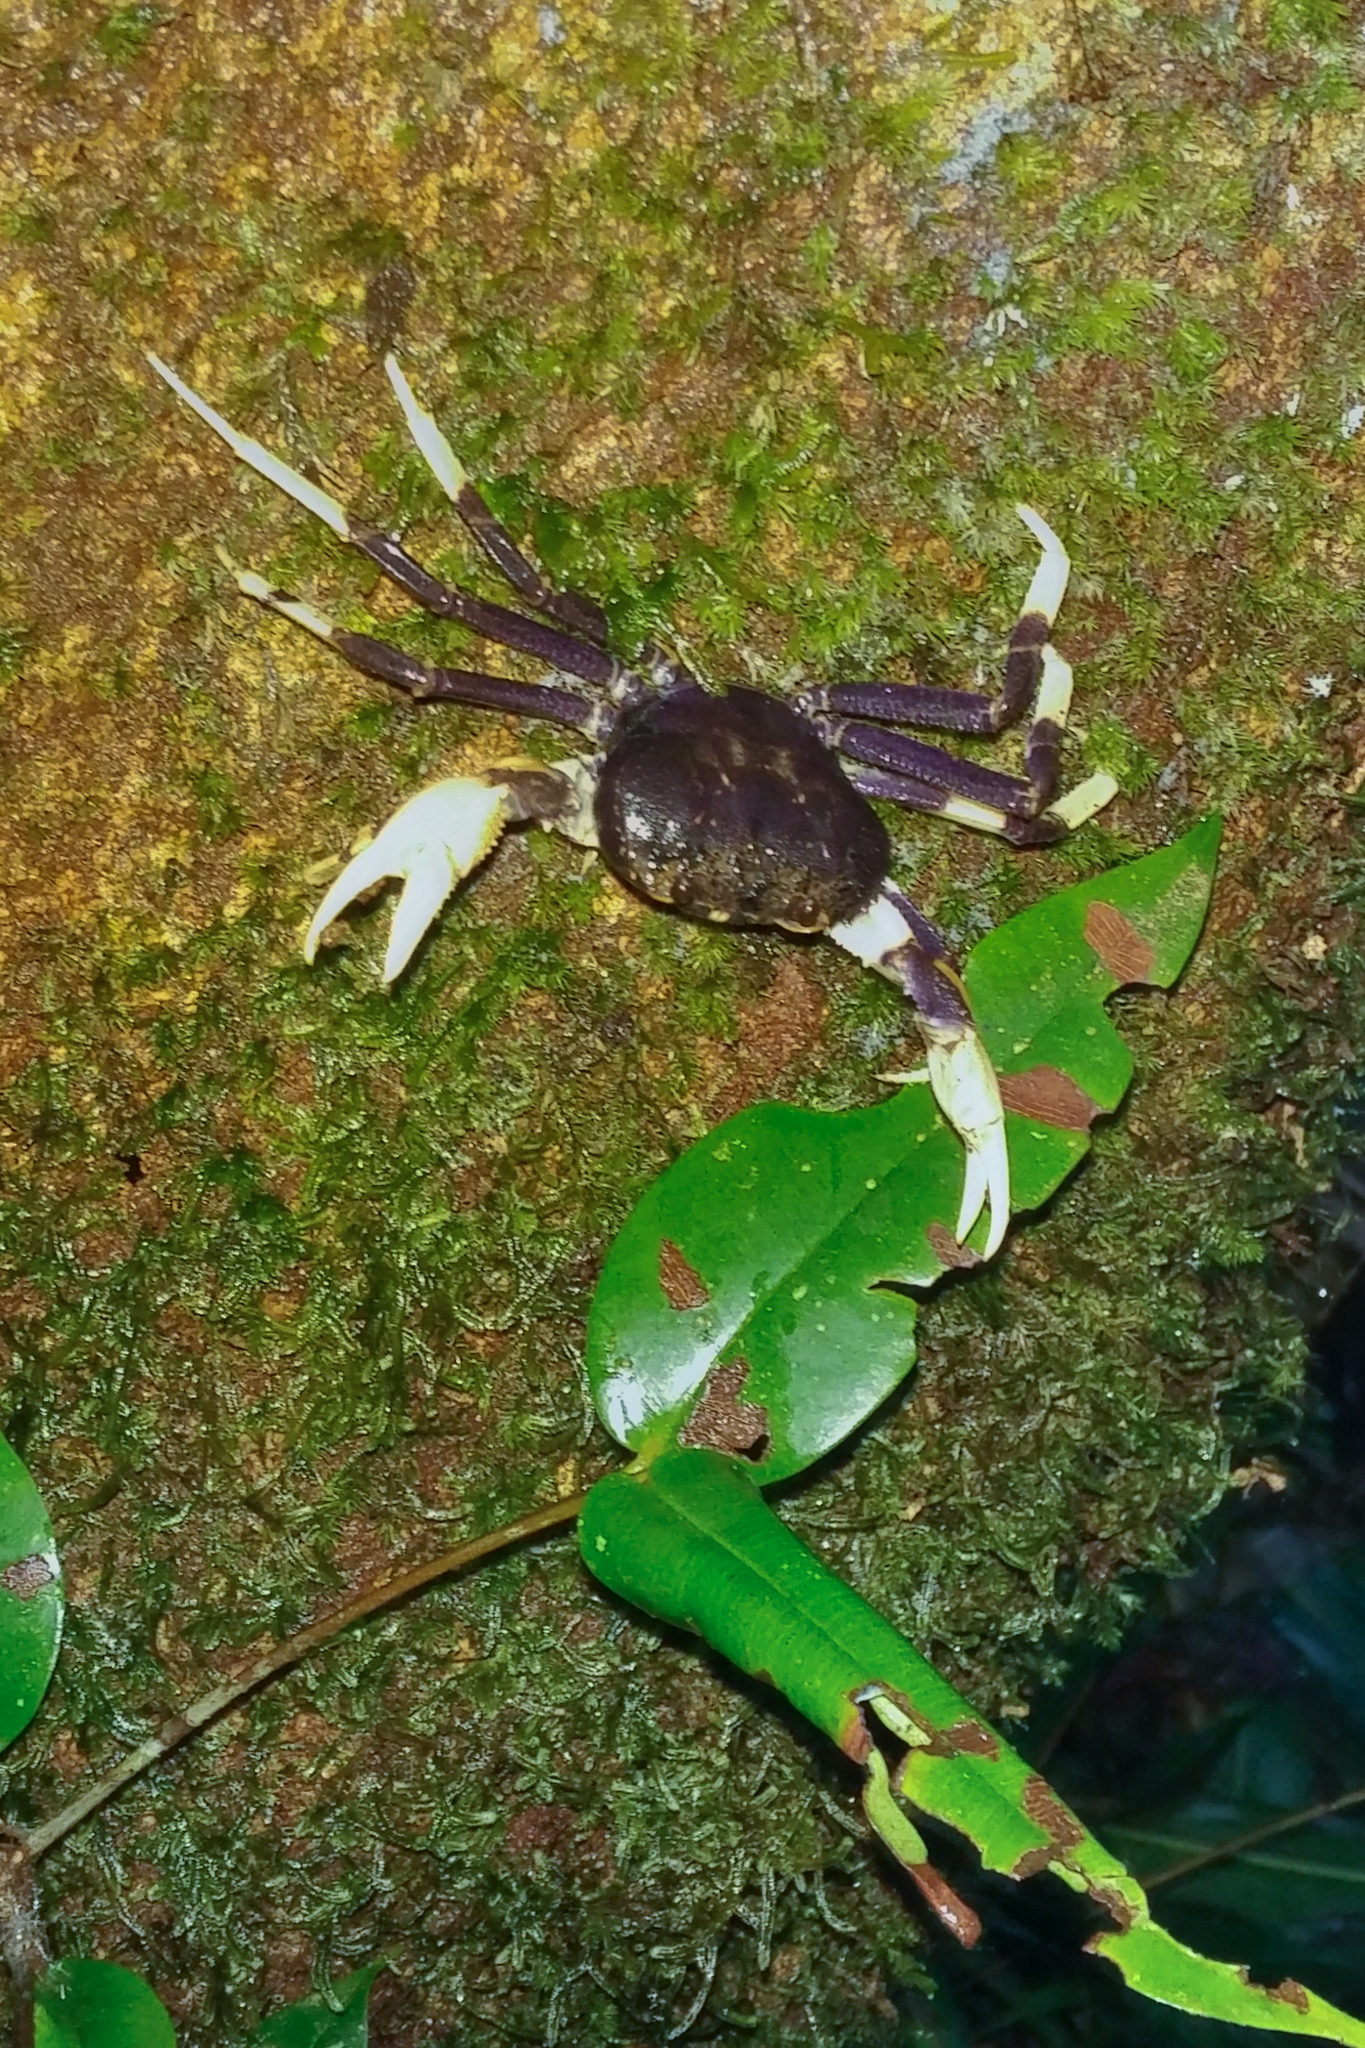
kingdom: Animalia
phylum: Arthropoda
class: Malacostraca
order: Decapoda
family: Deckeniidae
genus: Malagasya
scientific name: Malagasya antongilensis
